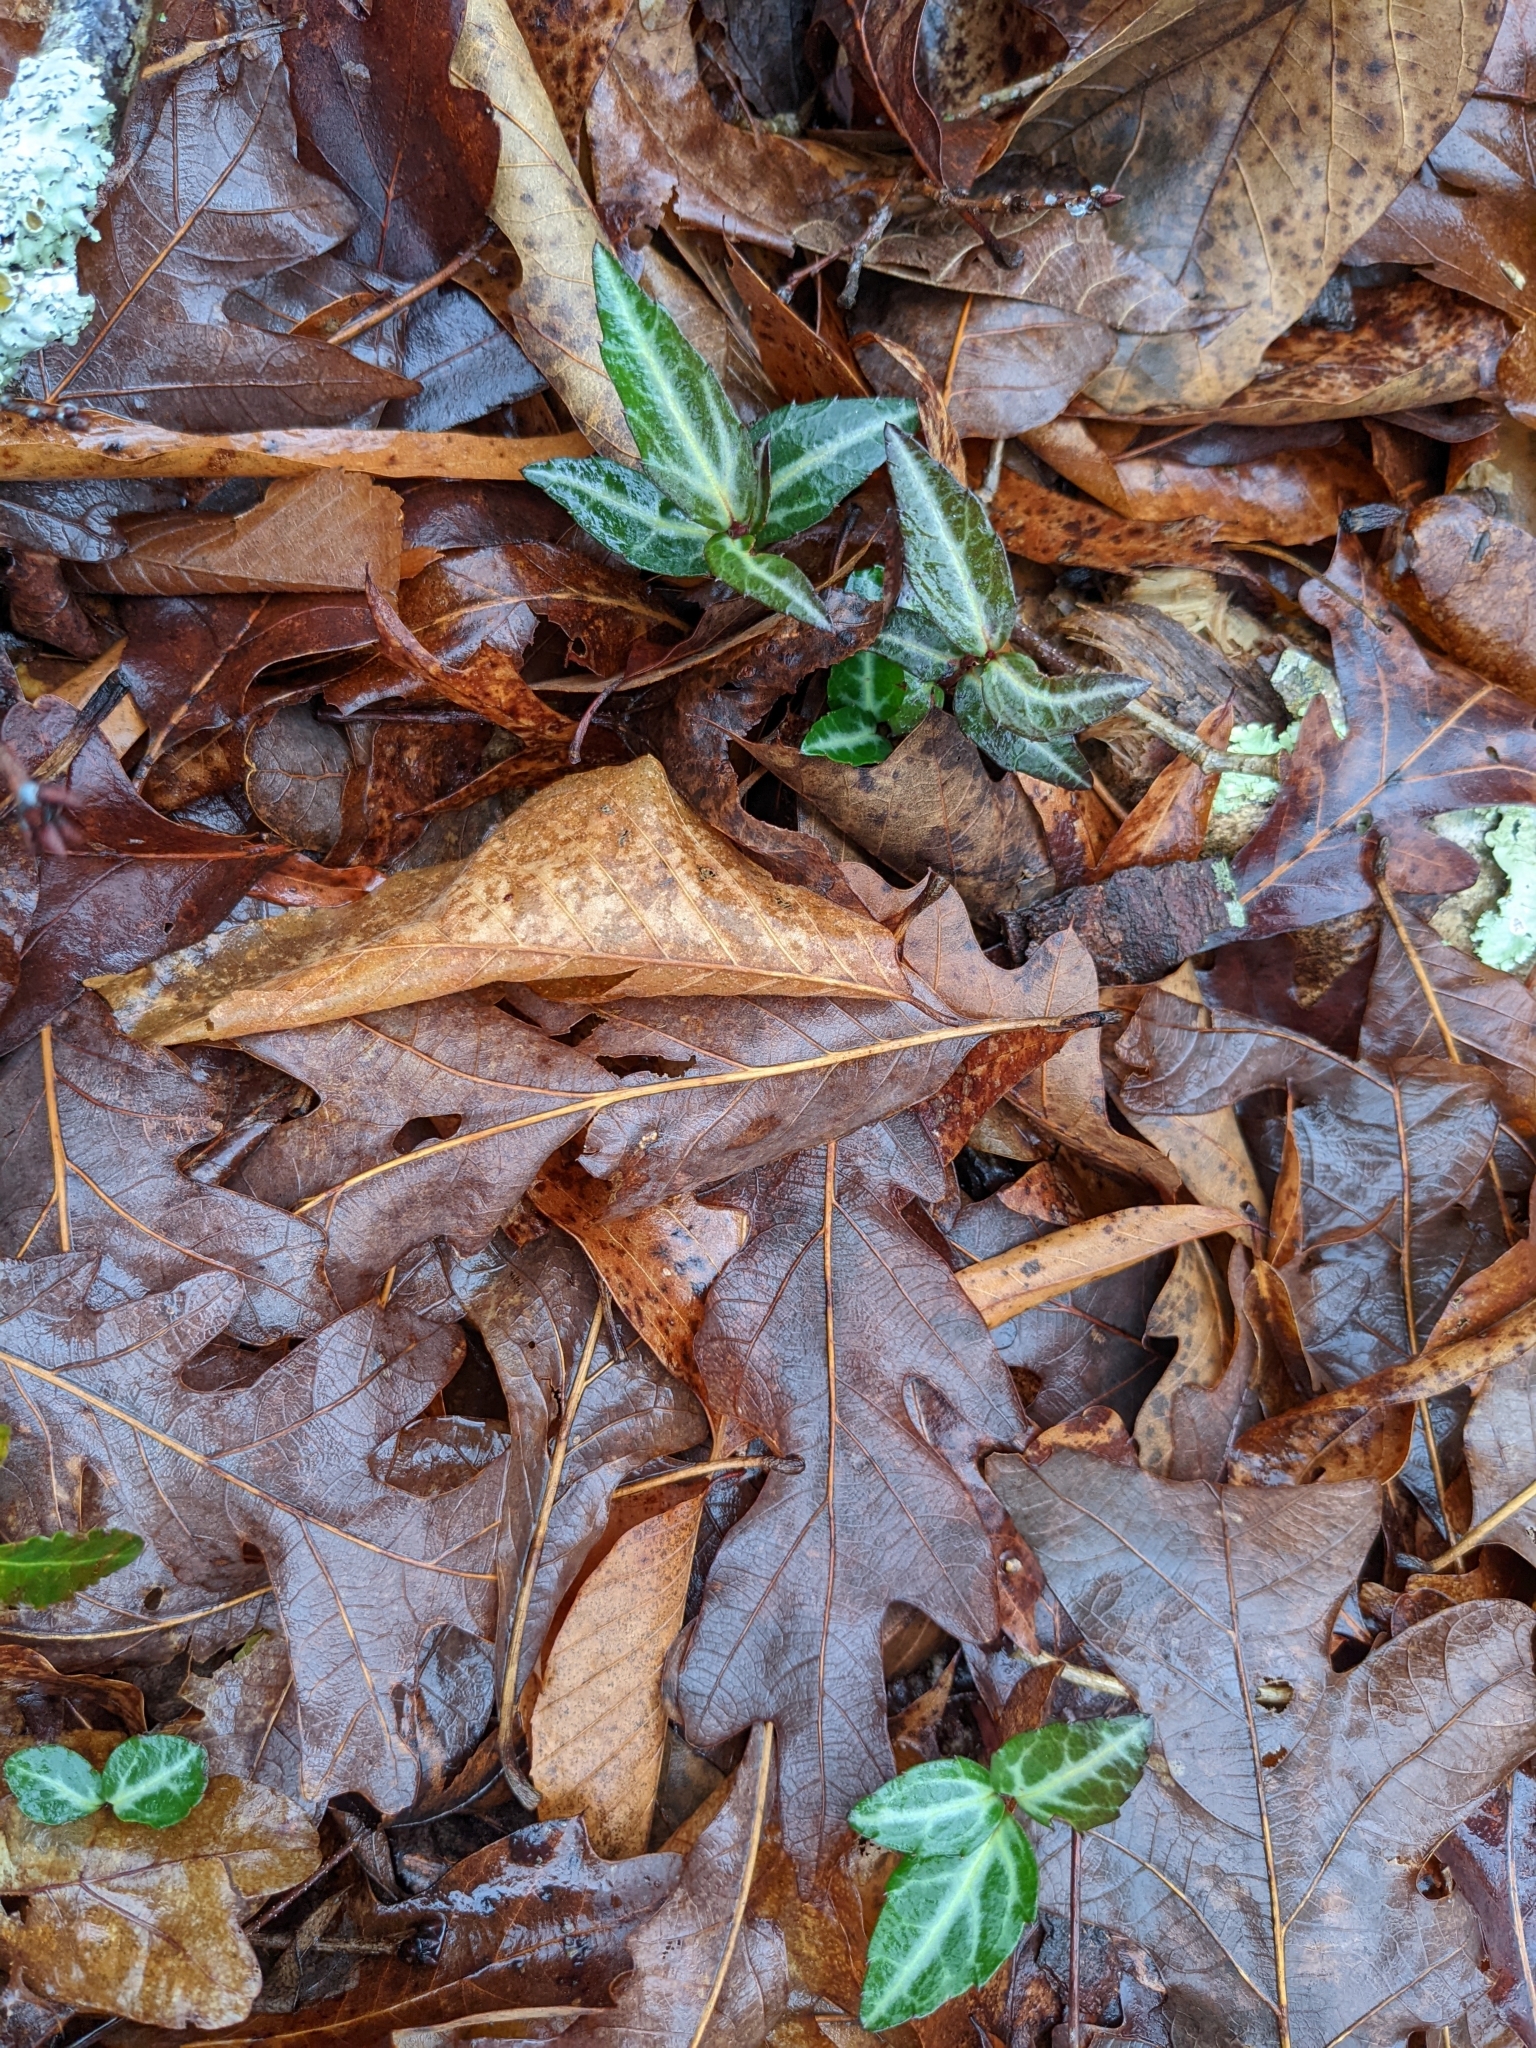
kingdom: Plantae
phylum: Tracheophyta
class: Magnoliopsida
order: Ericales
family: Ericaceae
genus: Chimaphila
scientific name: Chimaphila maculata
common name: Spotted pipsissewa
